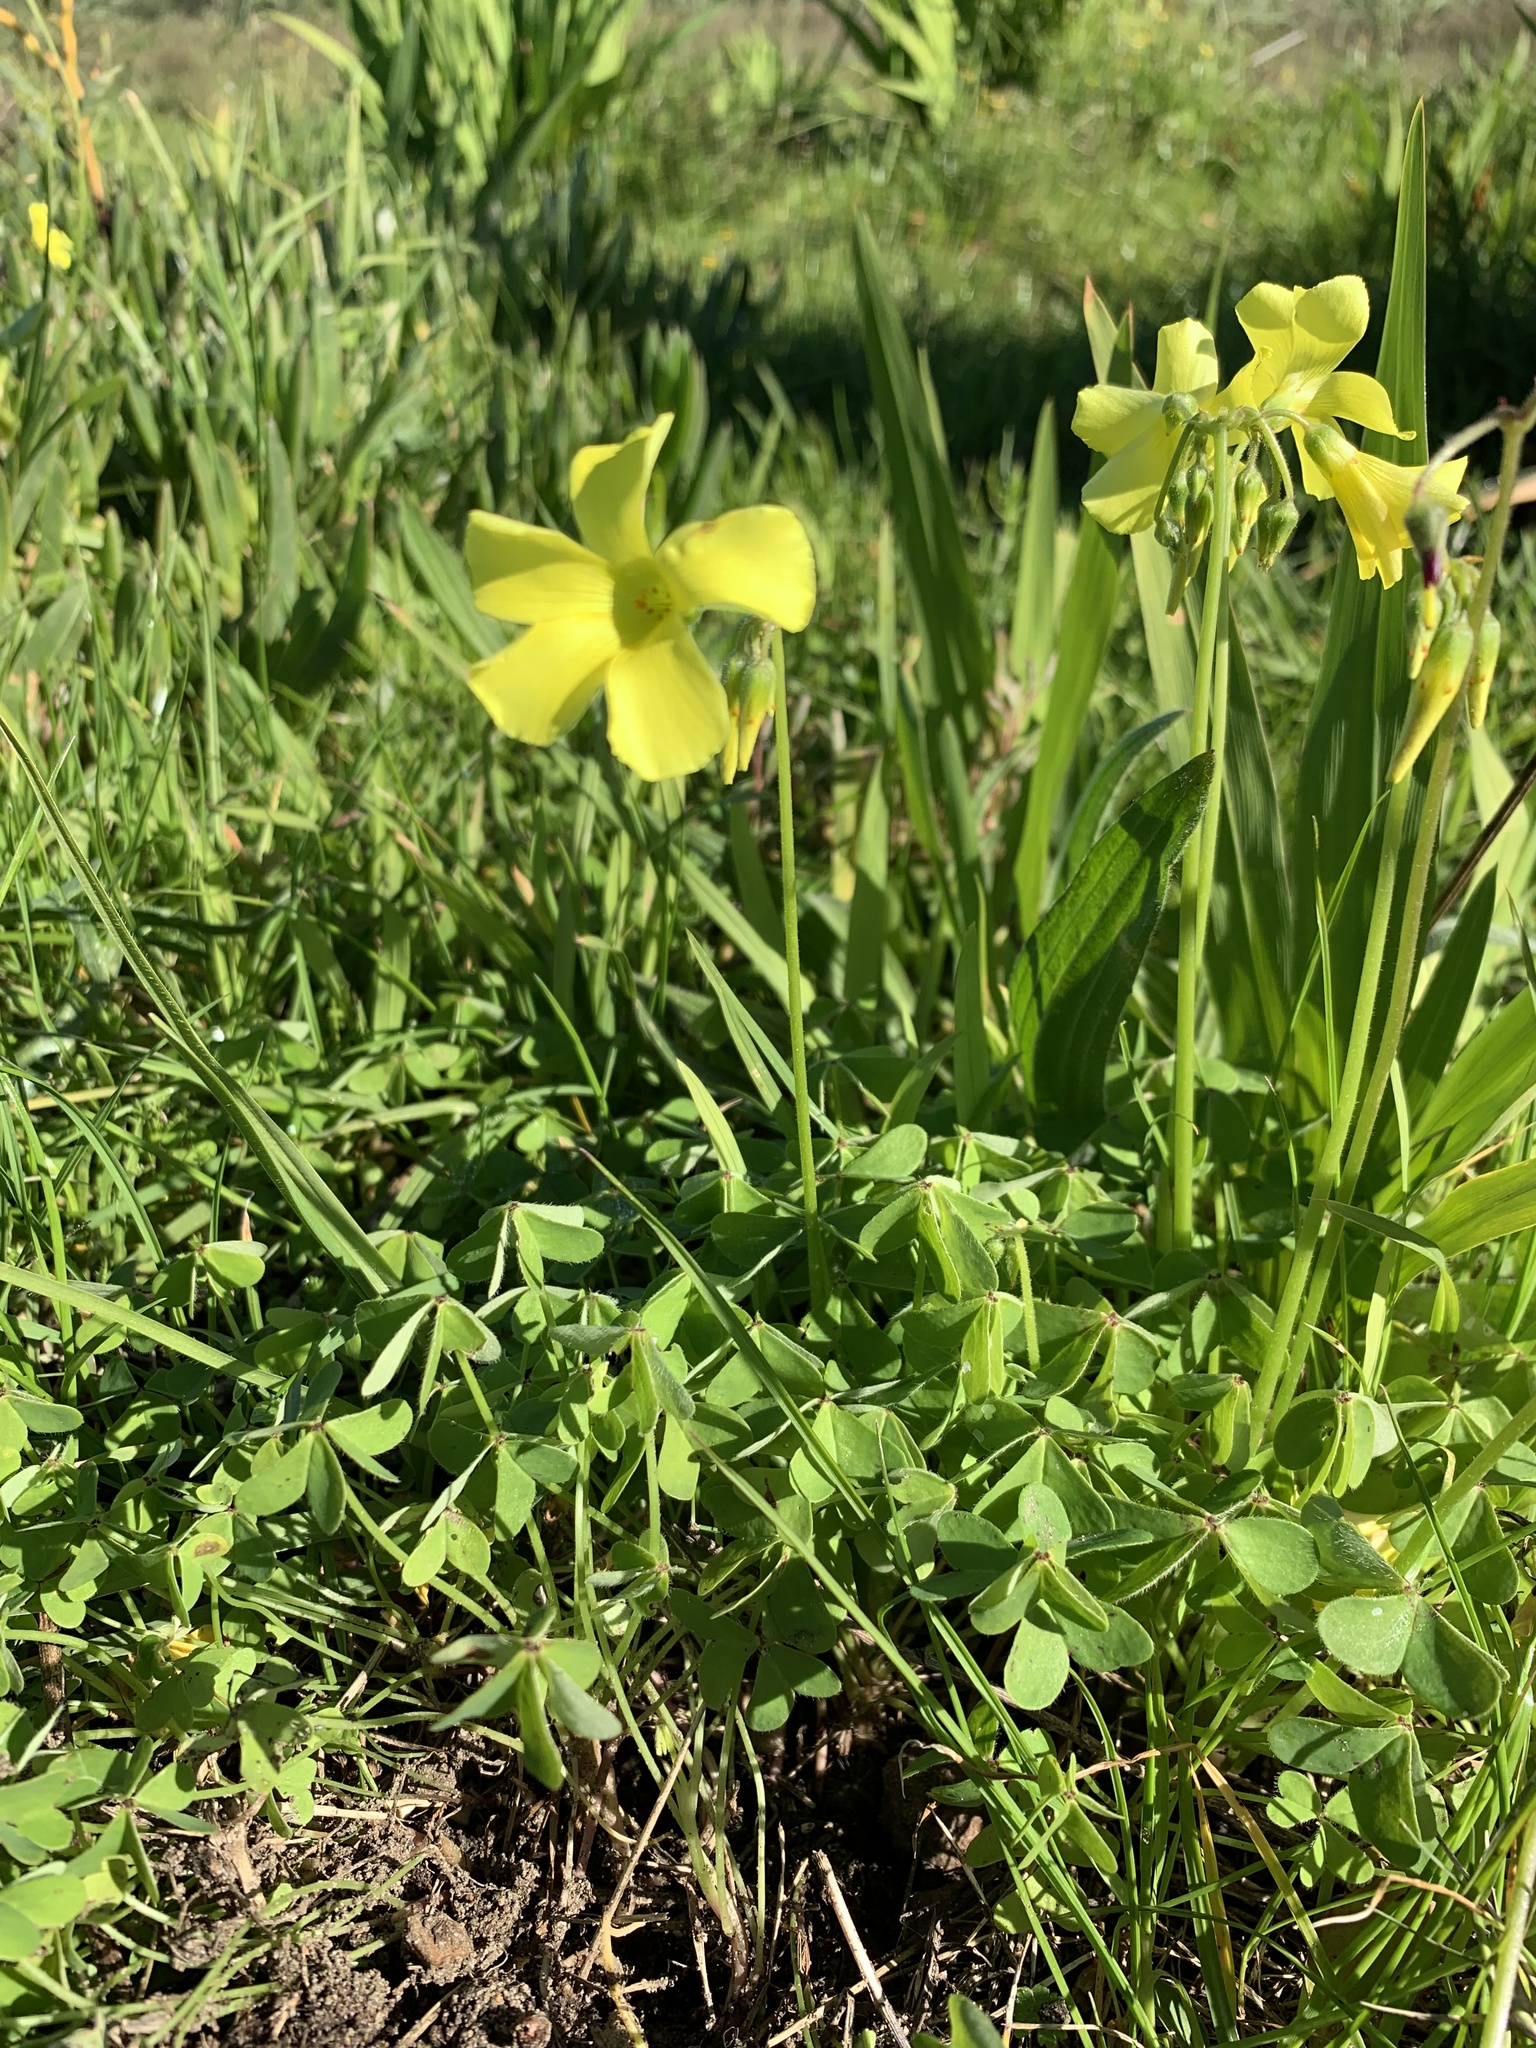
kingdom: Plantae
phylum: Tracheophyta
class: Magnoliopsida
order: Oxalidales
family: Oxalidaceae
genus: Oxalis
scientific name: Oxalis pes-caprae
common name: Bermuda-buttercup
